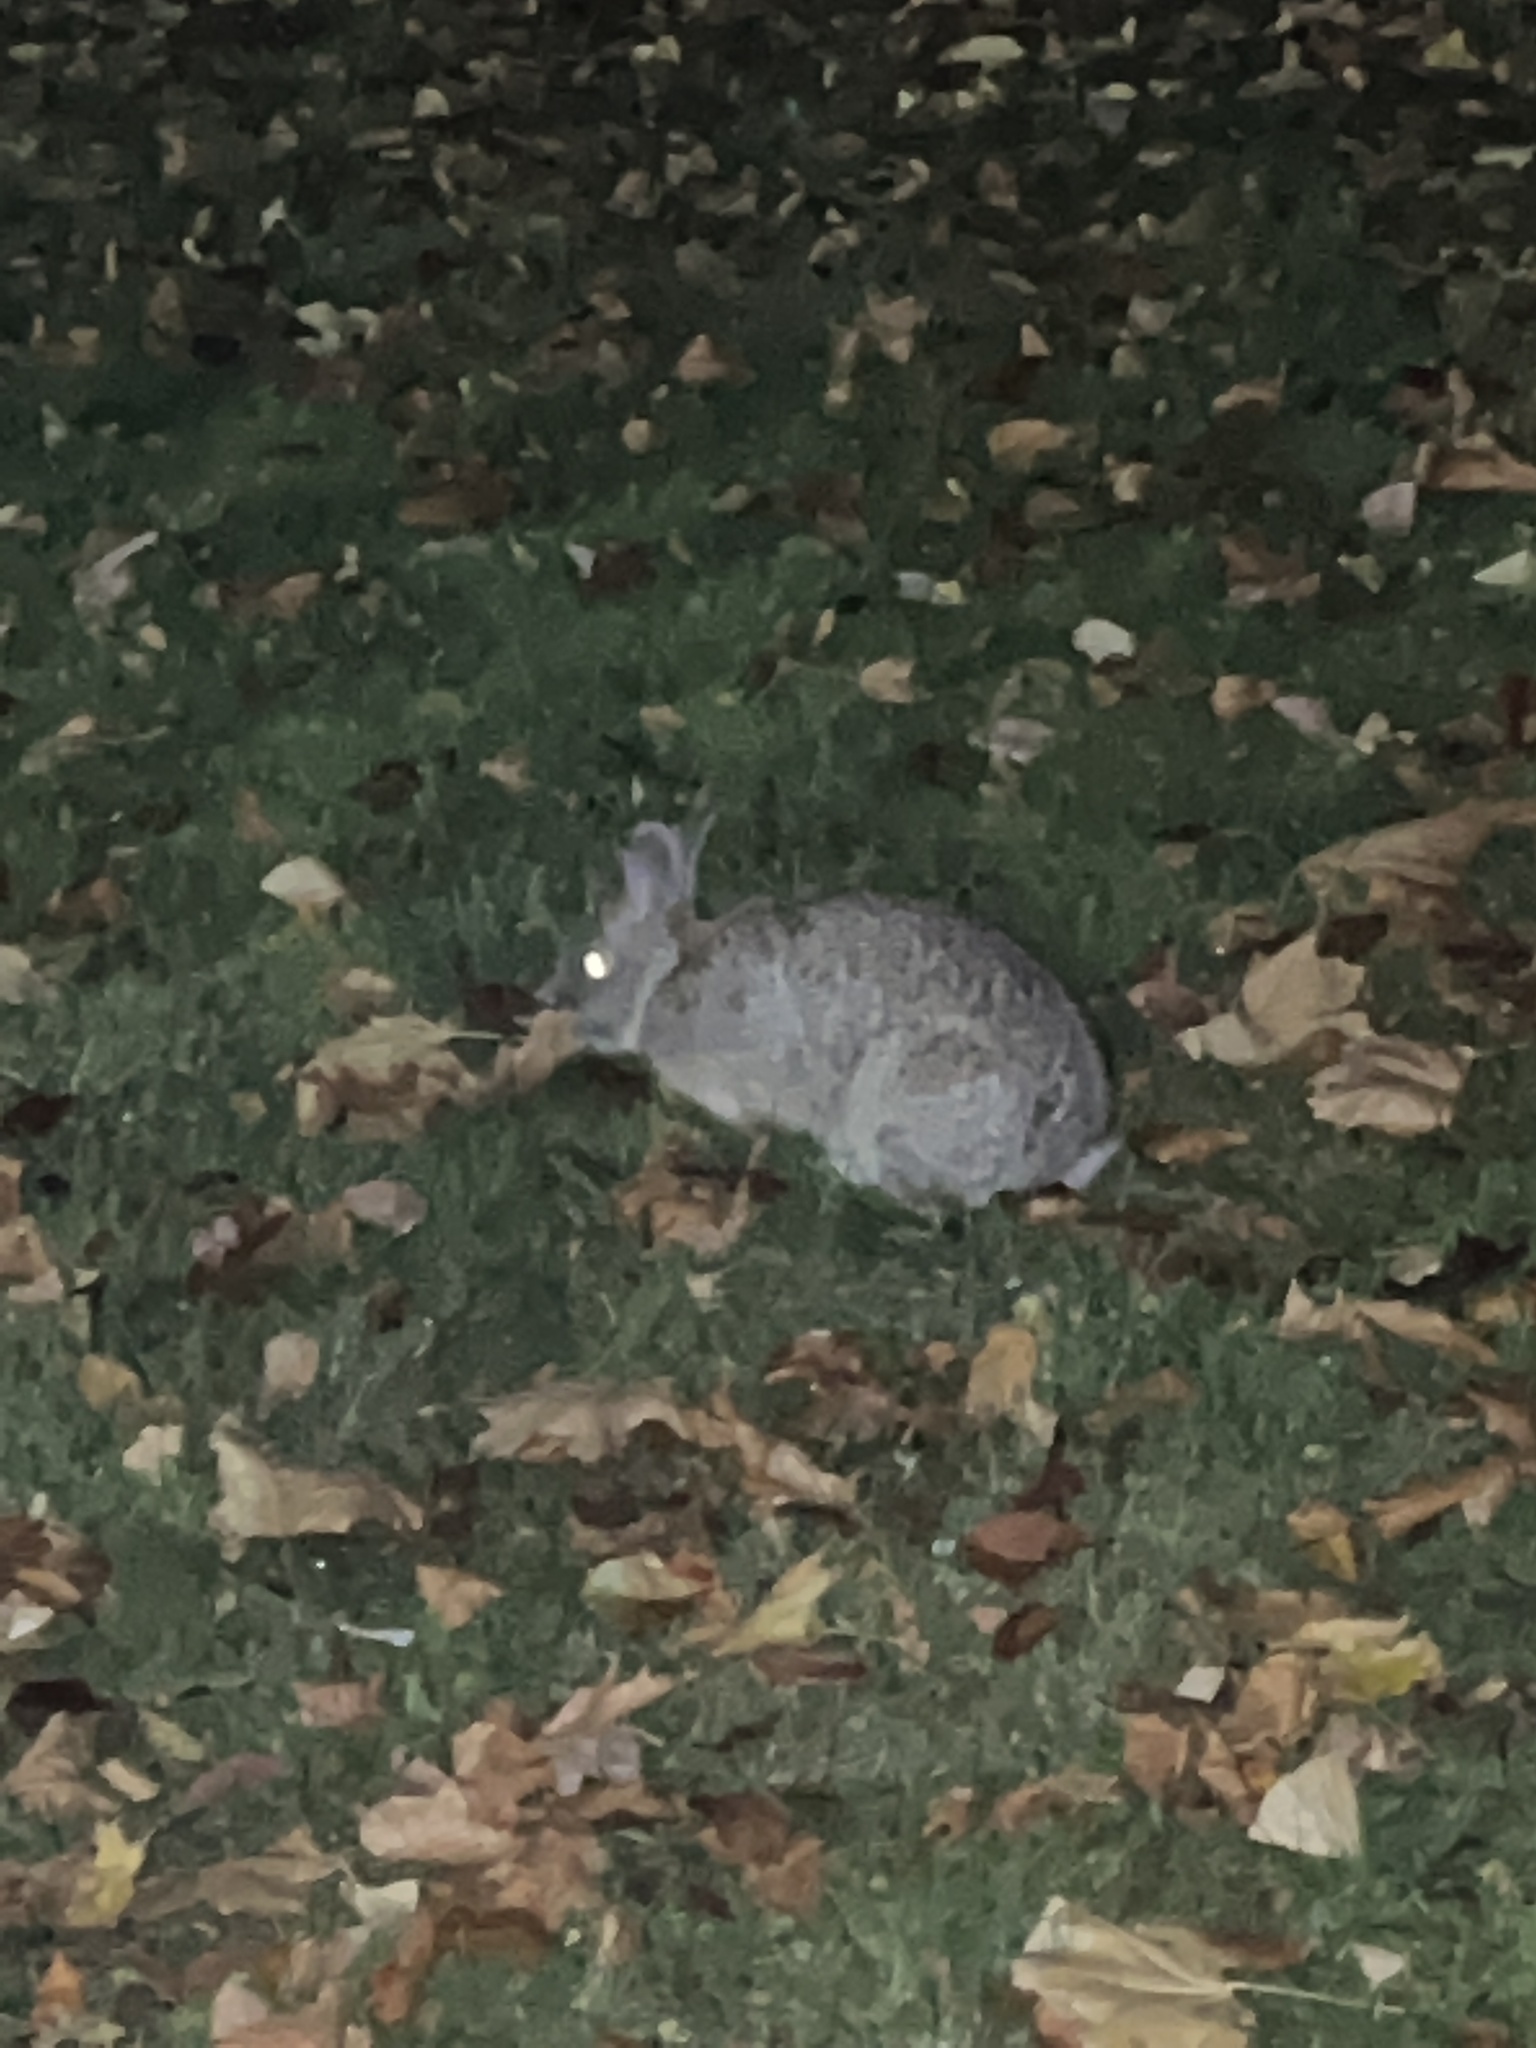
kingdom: Animalia
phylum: Chordata
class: Mammalia
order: Lagomorpha
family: Leporidae
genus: Sylvilagus
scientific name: Sylvilagus floridanus
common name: Eastern cottontail
